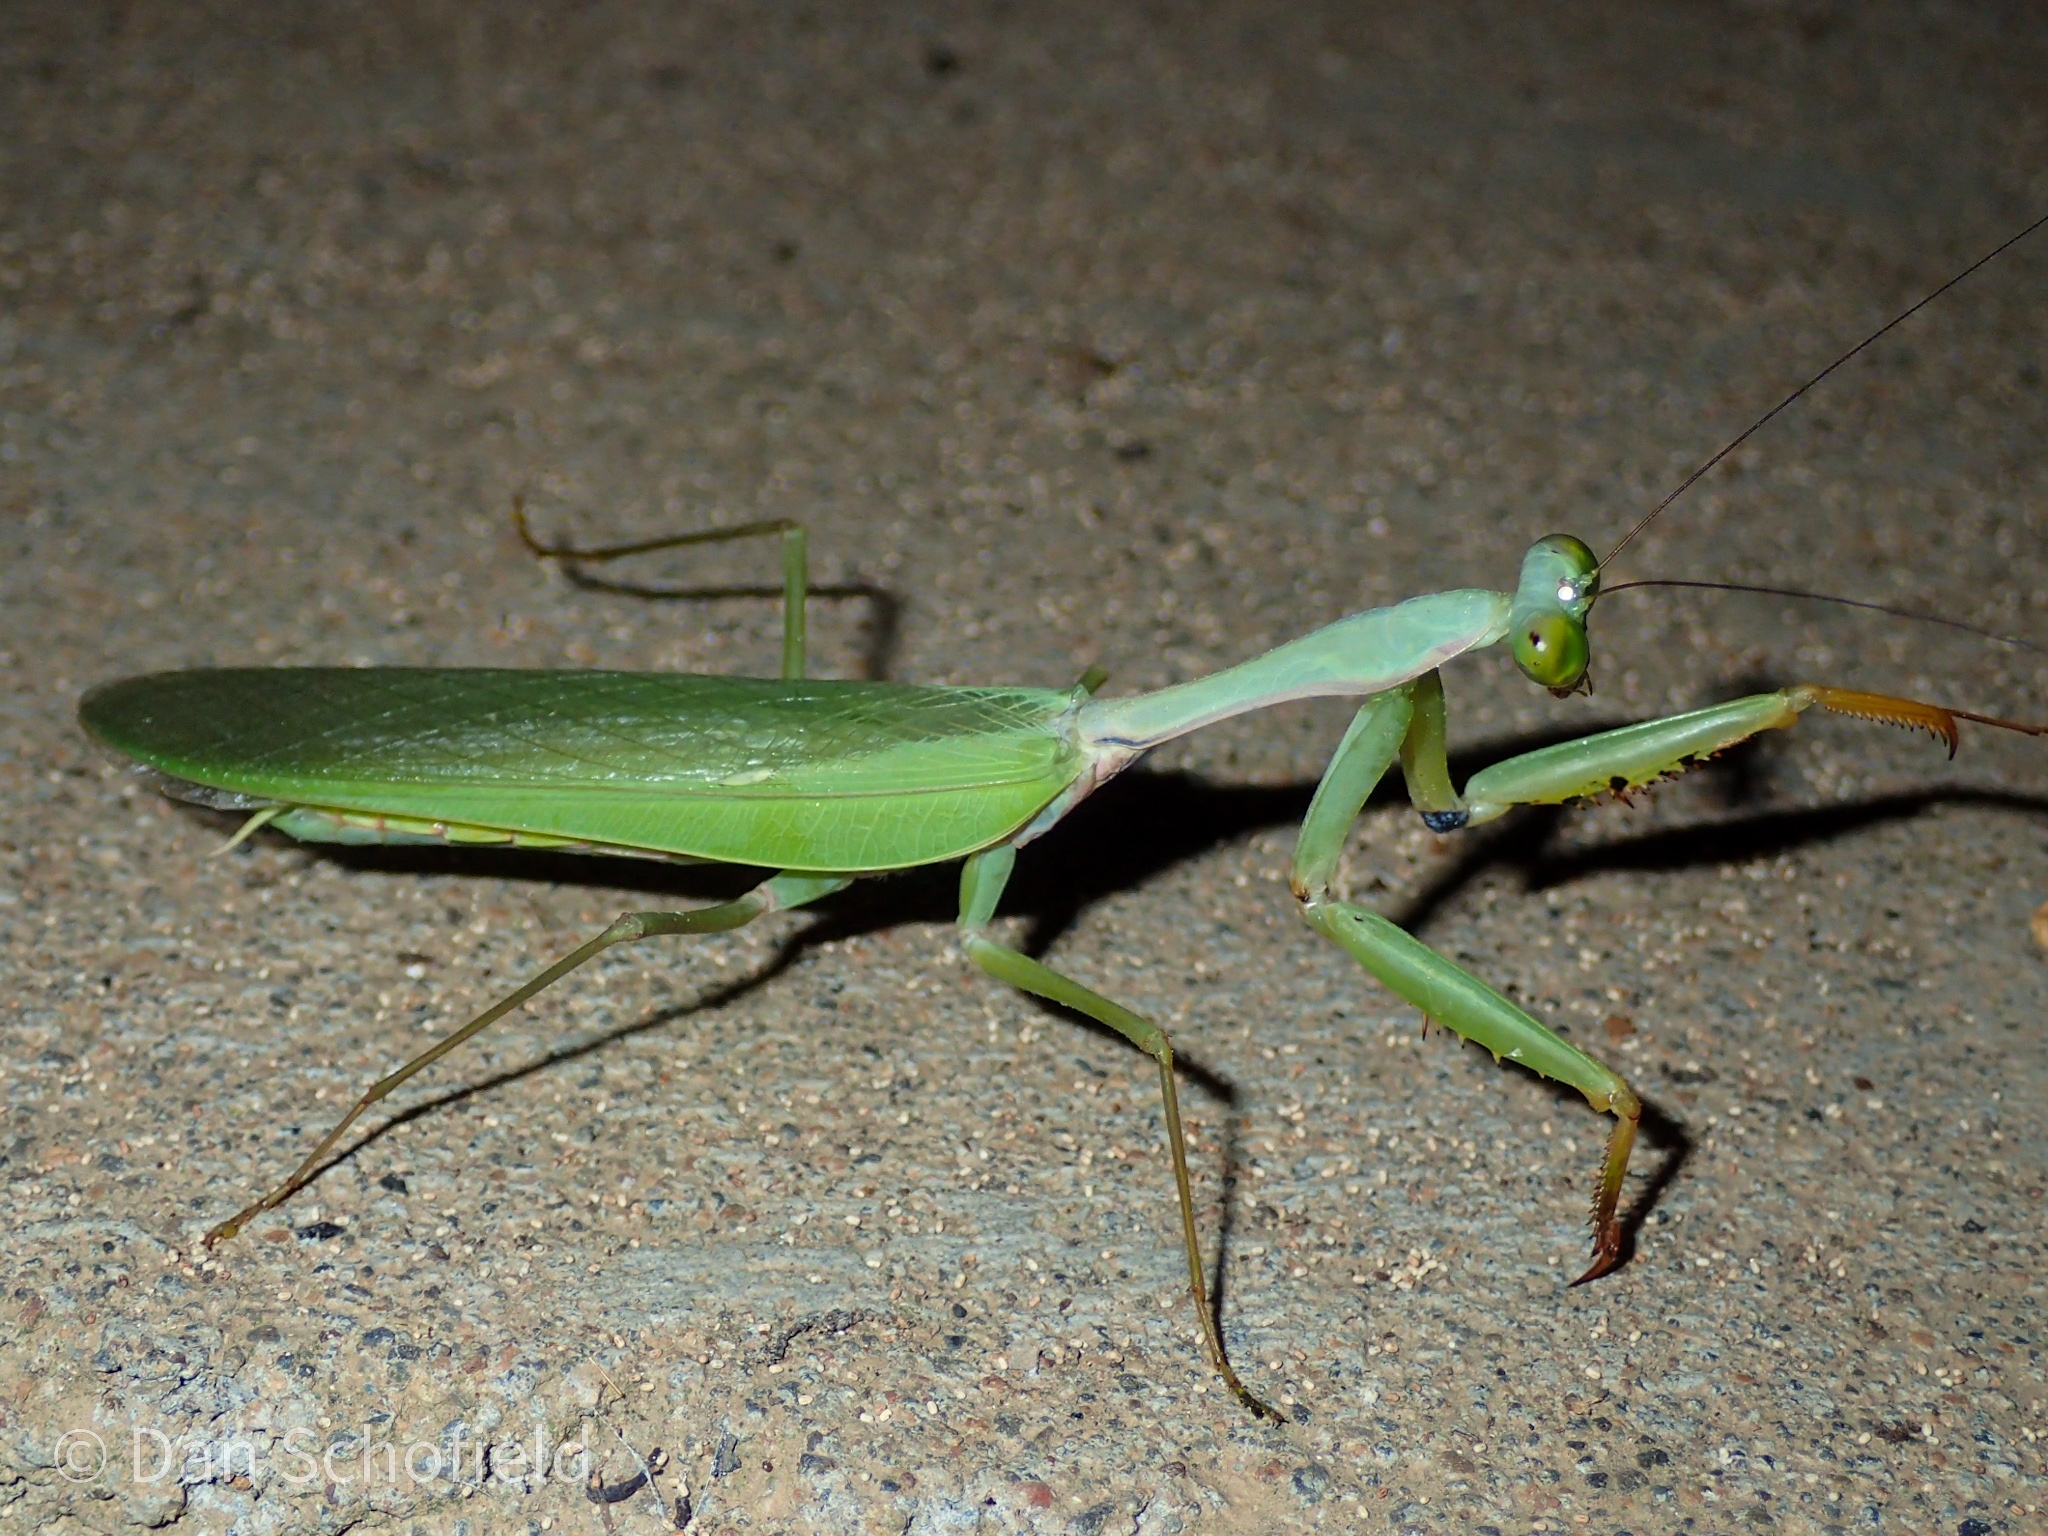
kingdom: Animalia
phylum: Arthropoda
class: Insecta
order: Mantodea
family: Mantidae
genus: Hierodula
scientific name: Hierodula purpurescens
